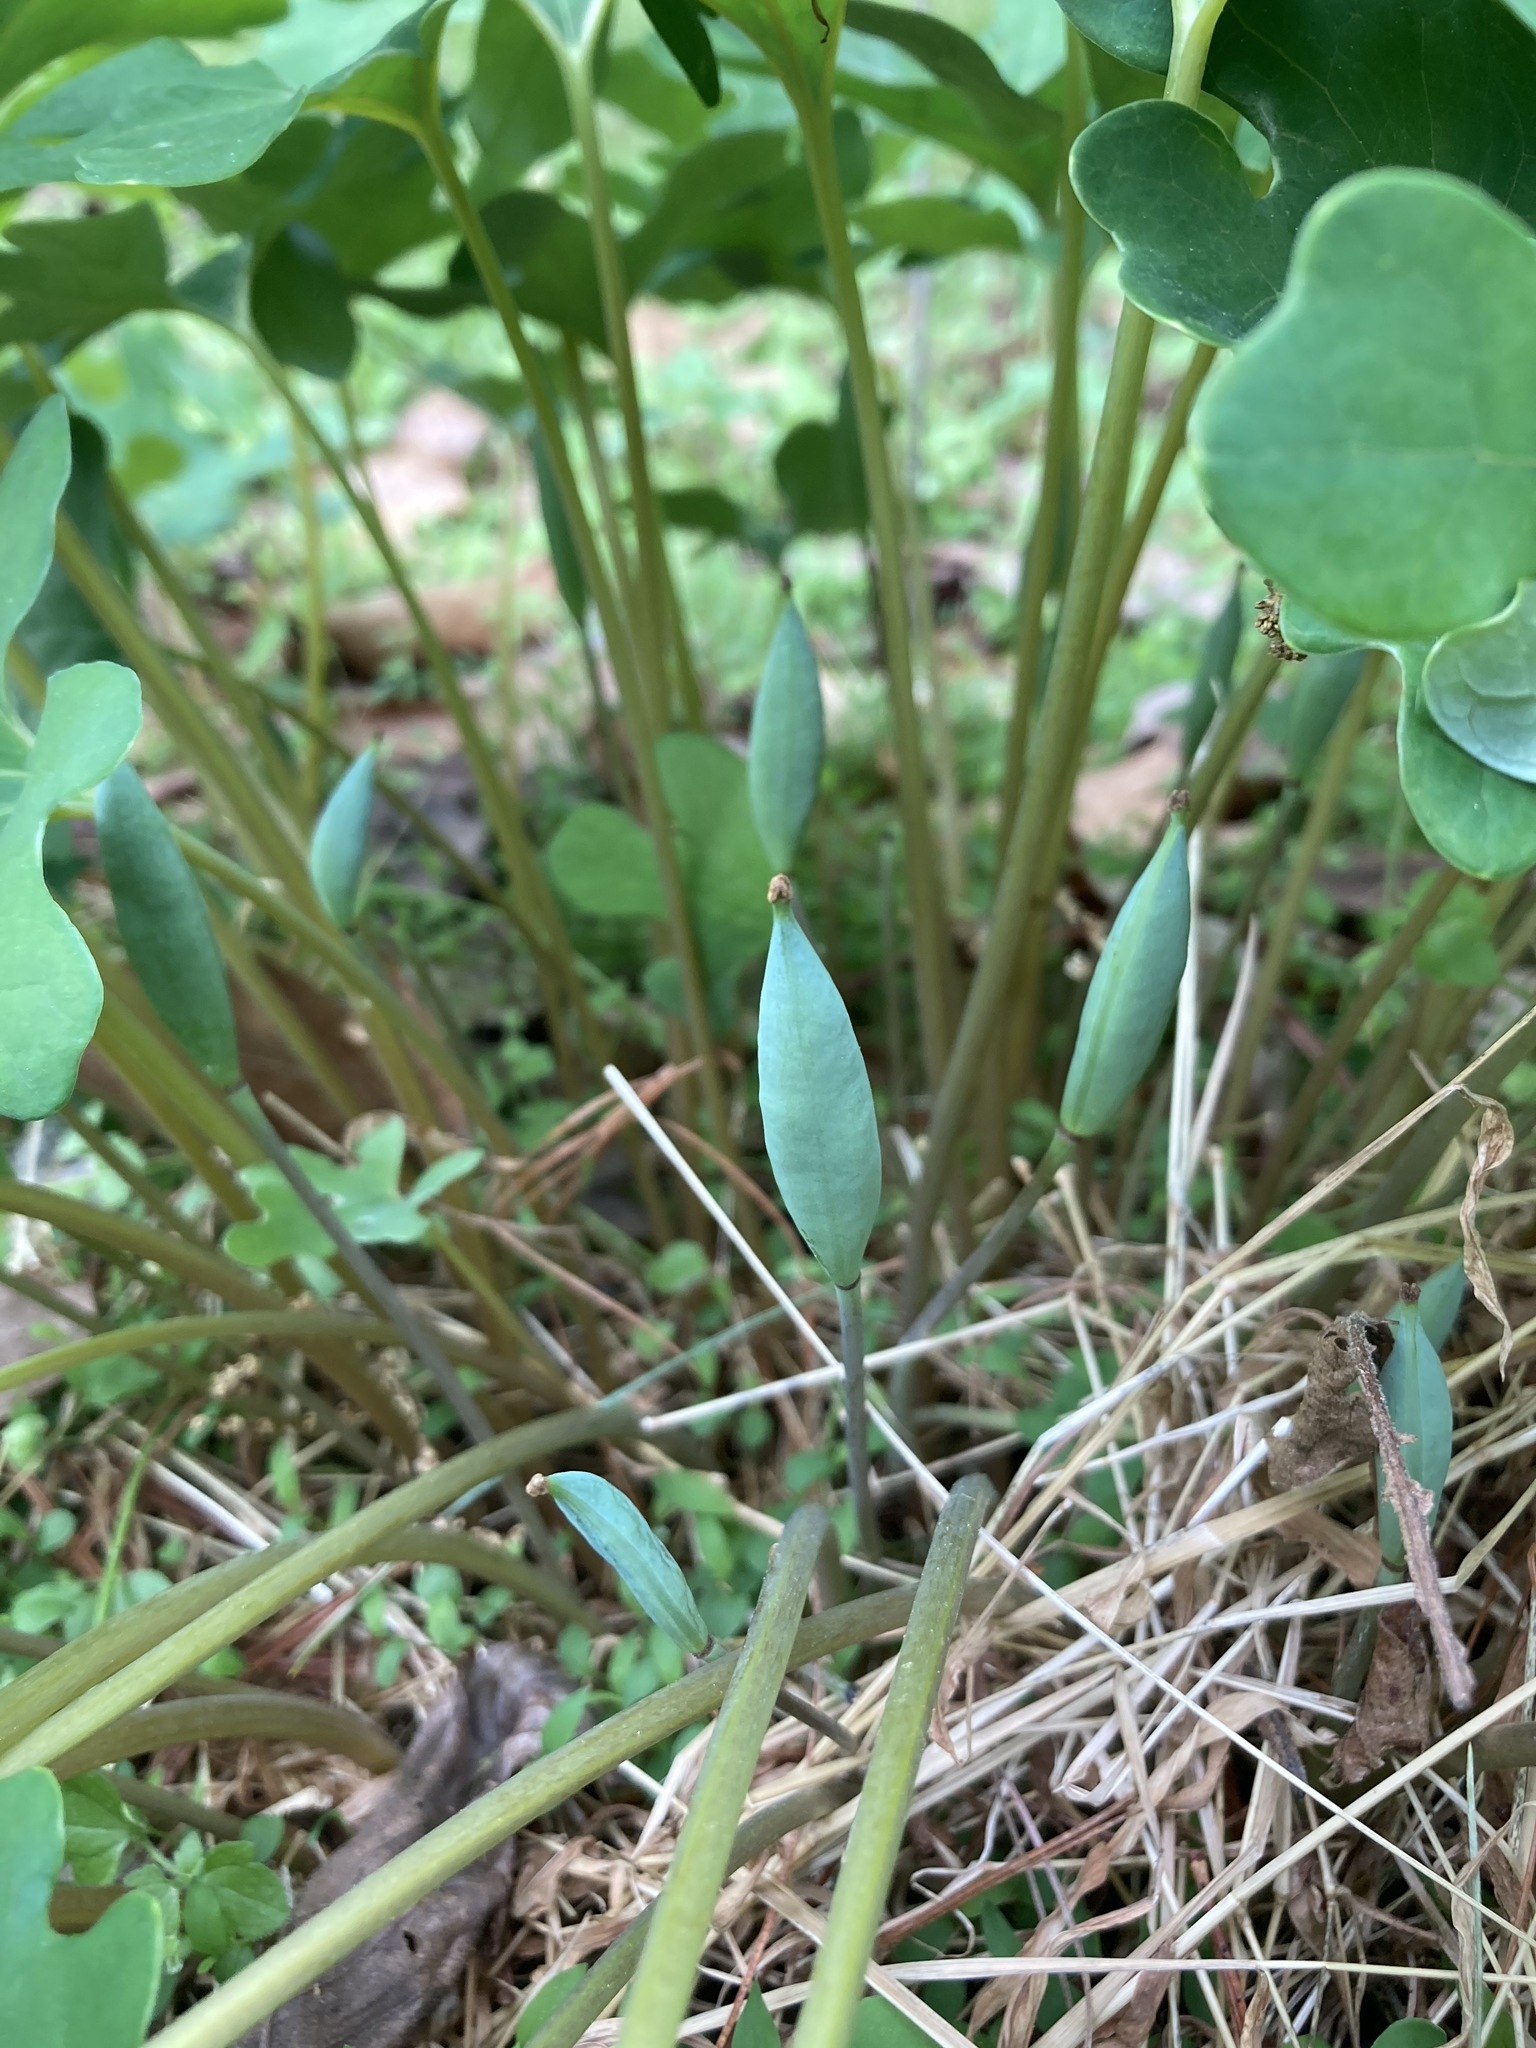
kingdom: Plantae
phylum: Tracheophyta
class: Magnoliopsida
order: Ranunculales
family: Papaveraceae
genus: Sanguinaria
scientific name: Sanguinaria canadensis
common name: Bloodroot
